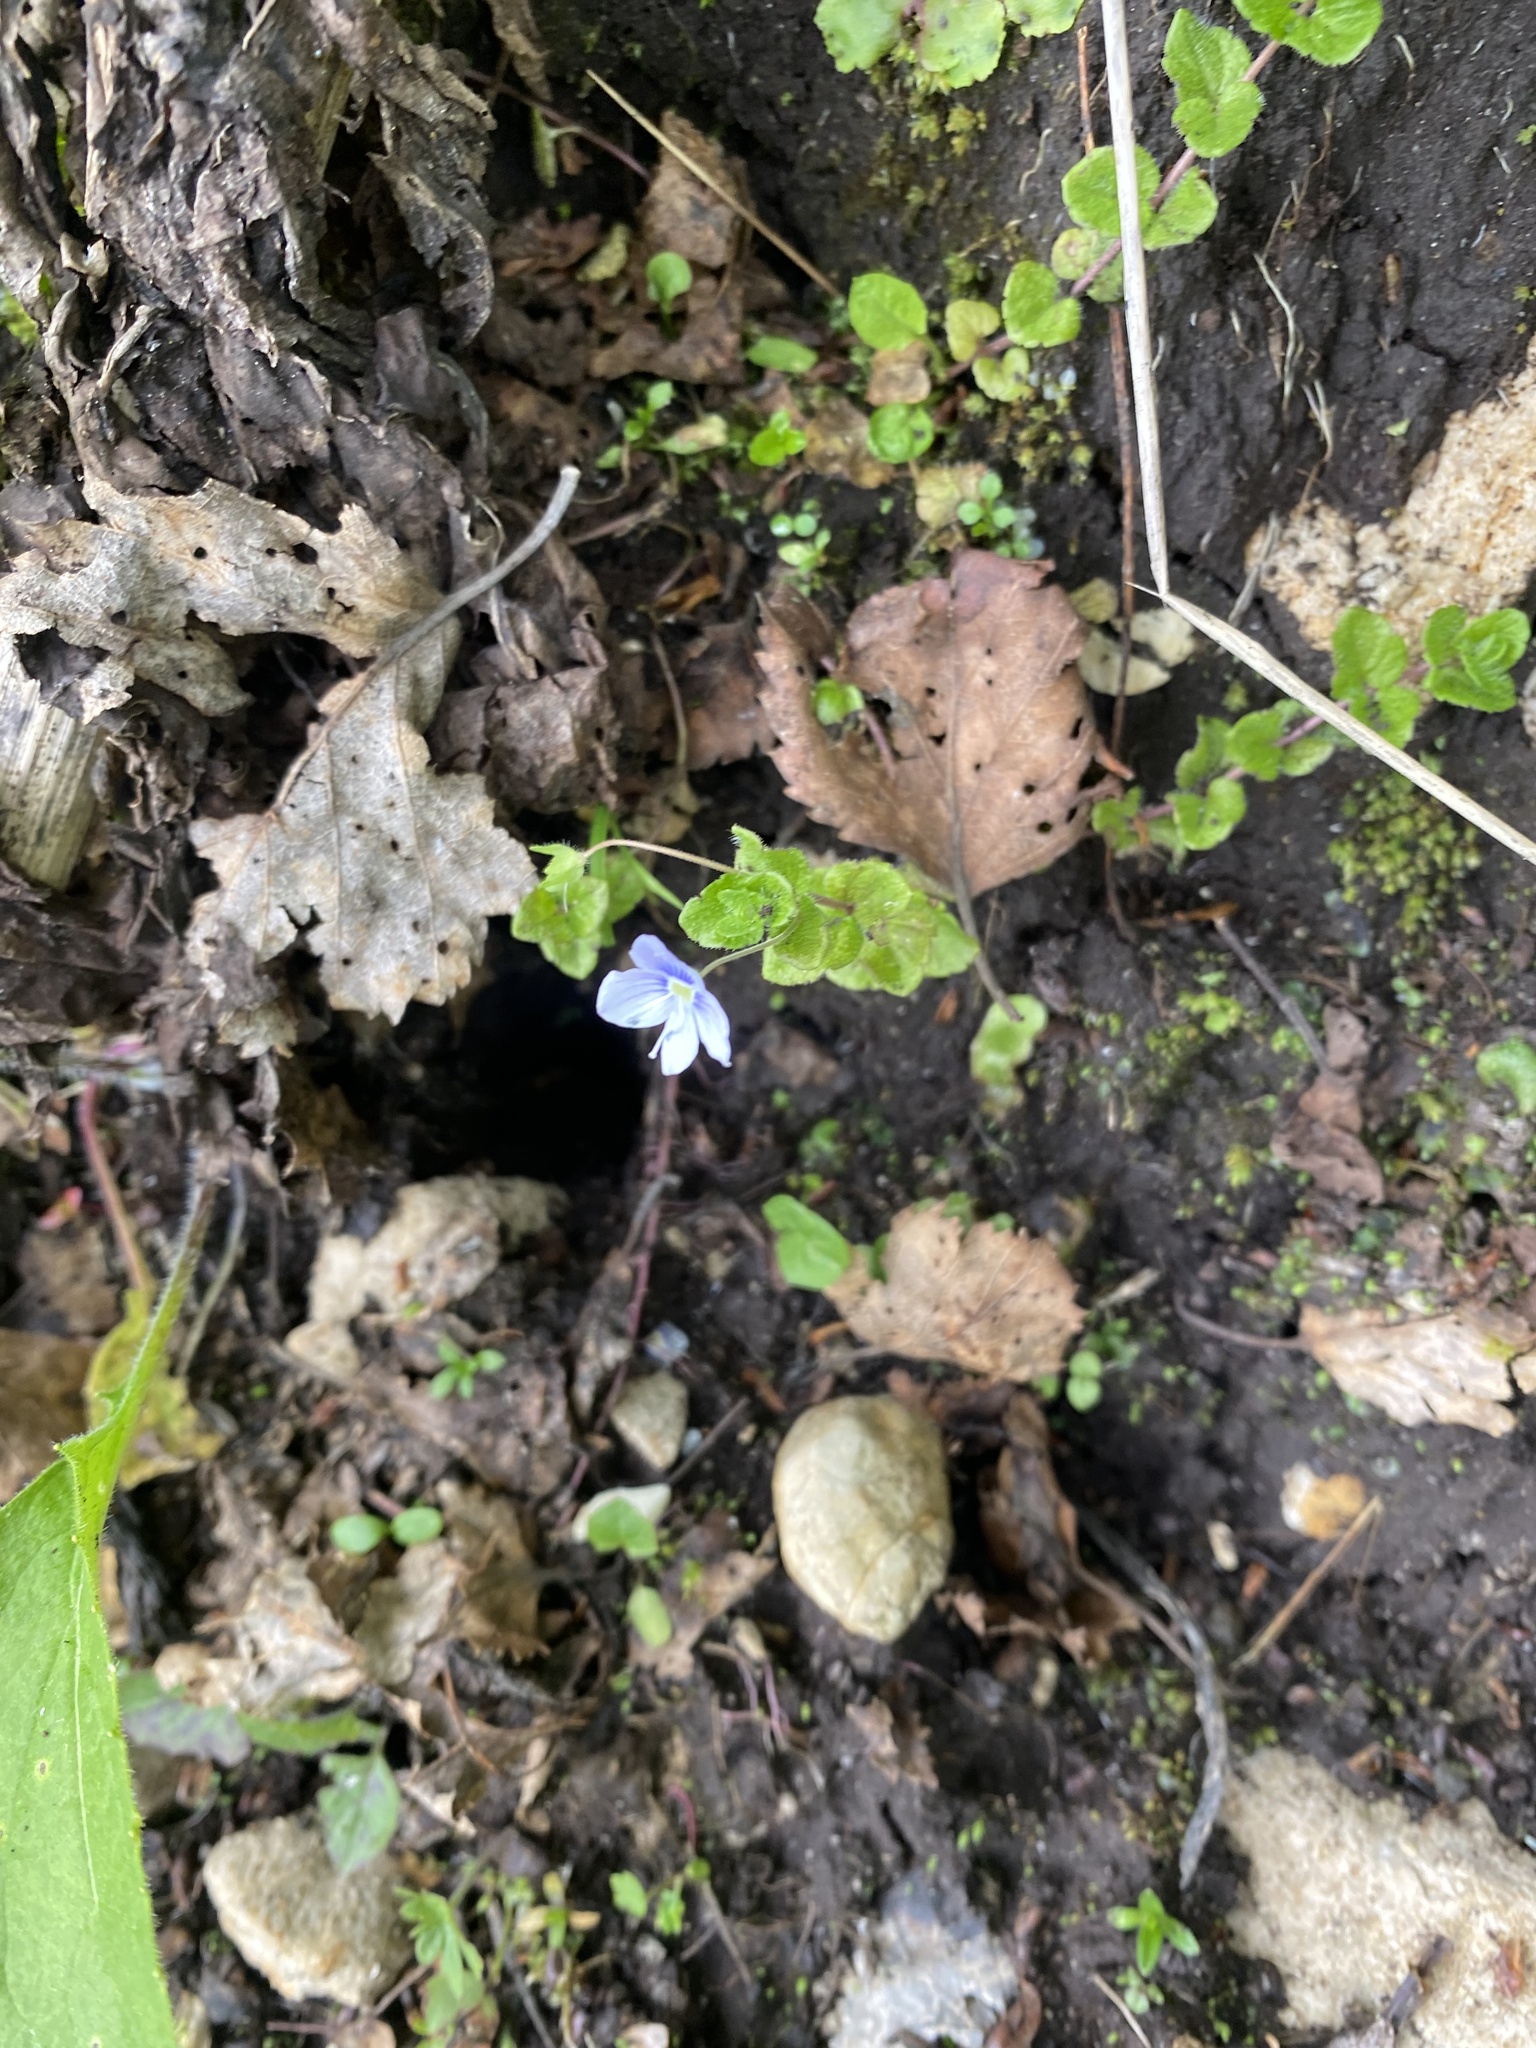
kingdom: Plantae
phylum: Tracheophyta
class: Magnoliopsida
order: Lamiales
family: Plantaginaceae
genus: Veronica
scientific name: Veronica filiformis
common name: Slender speedwell
